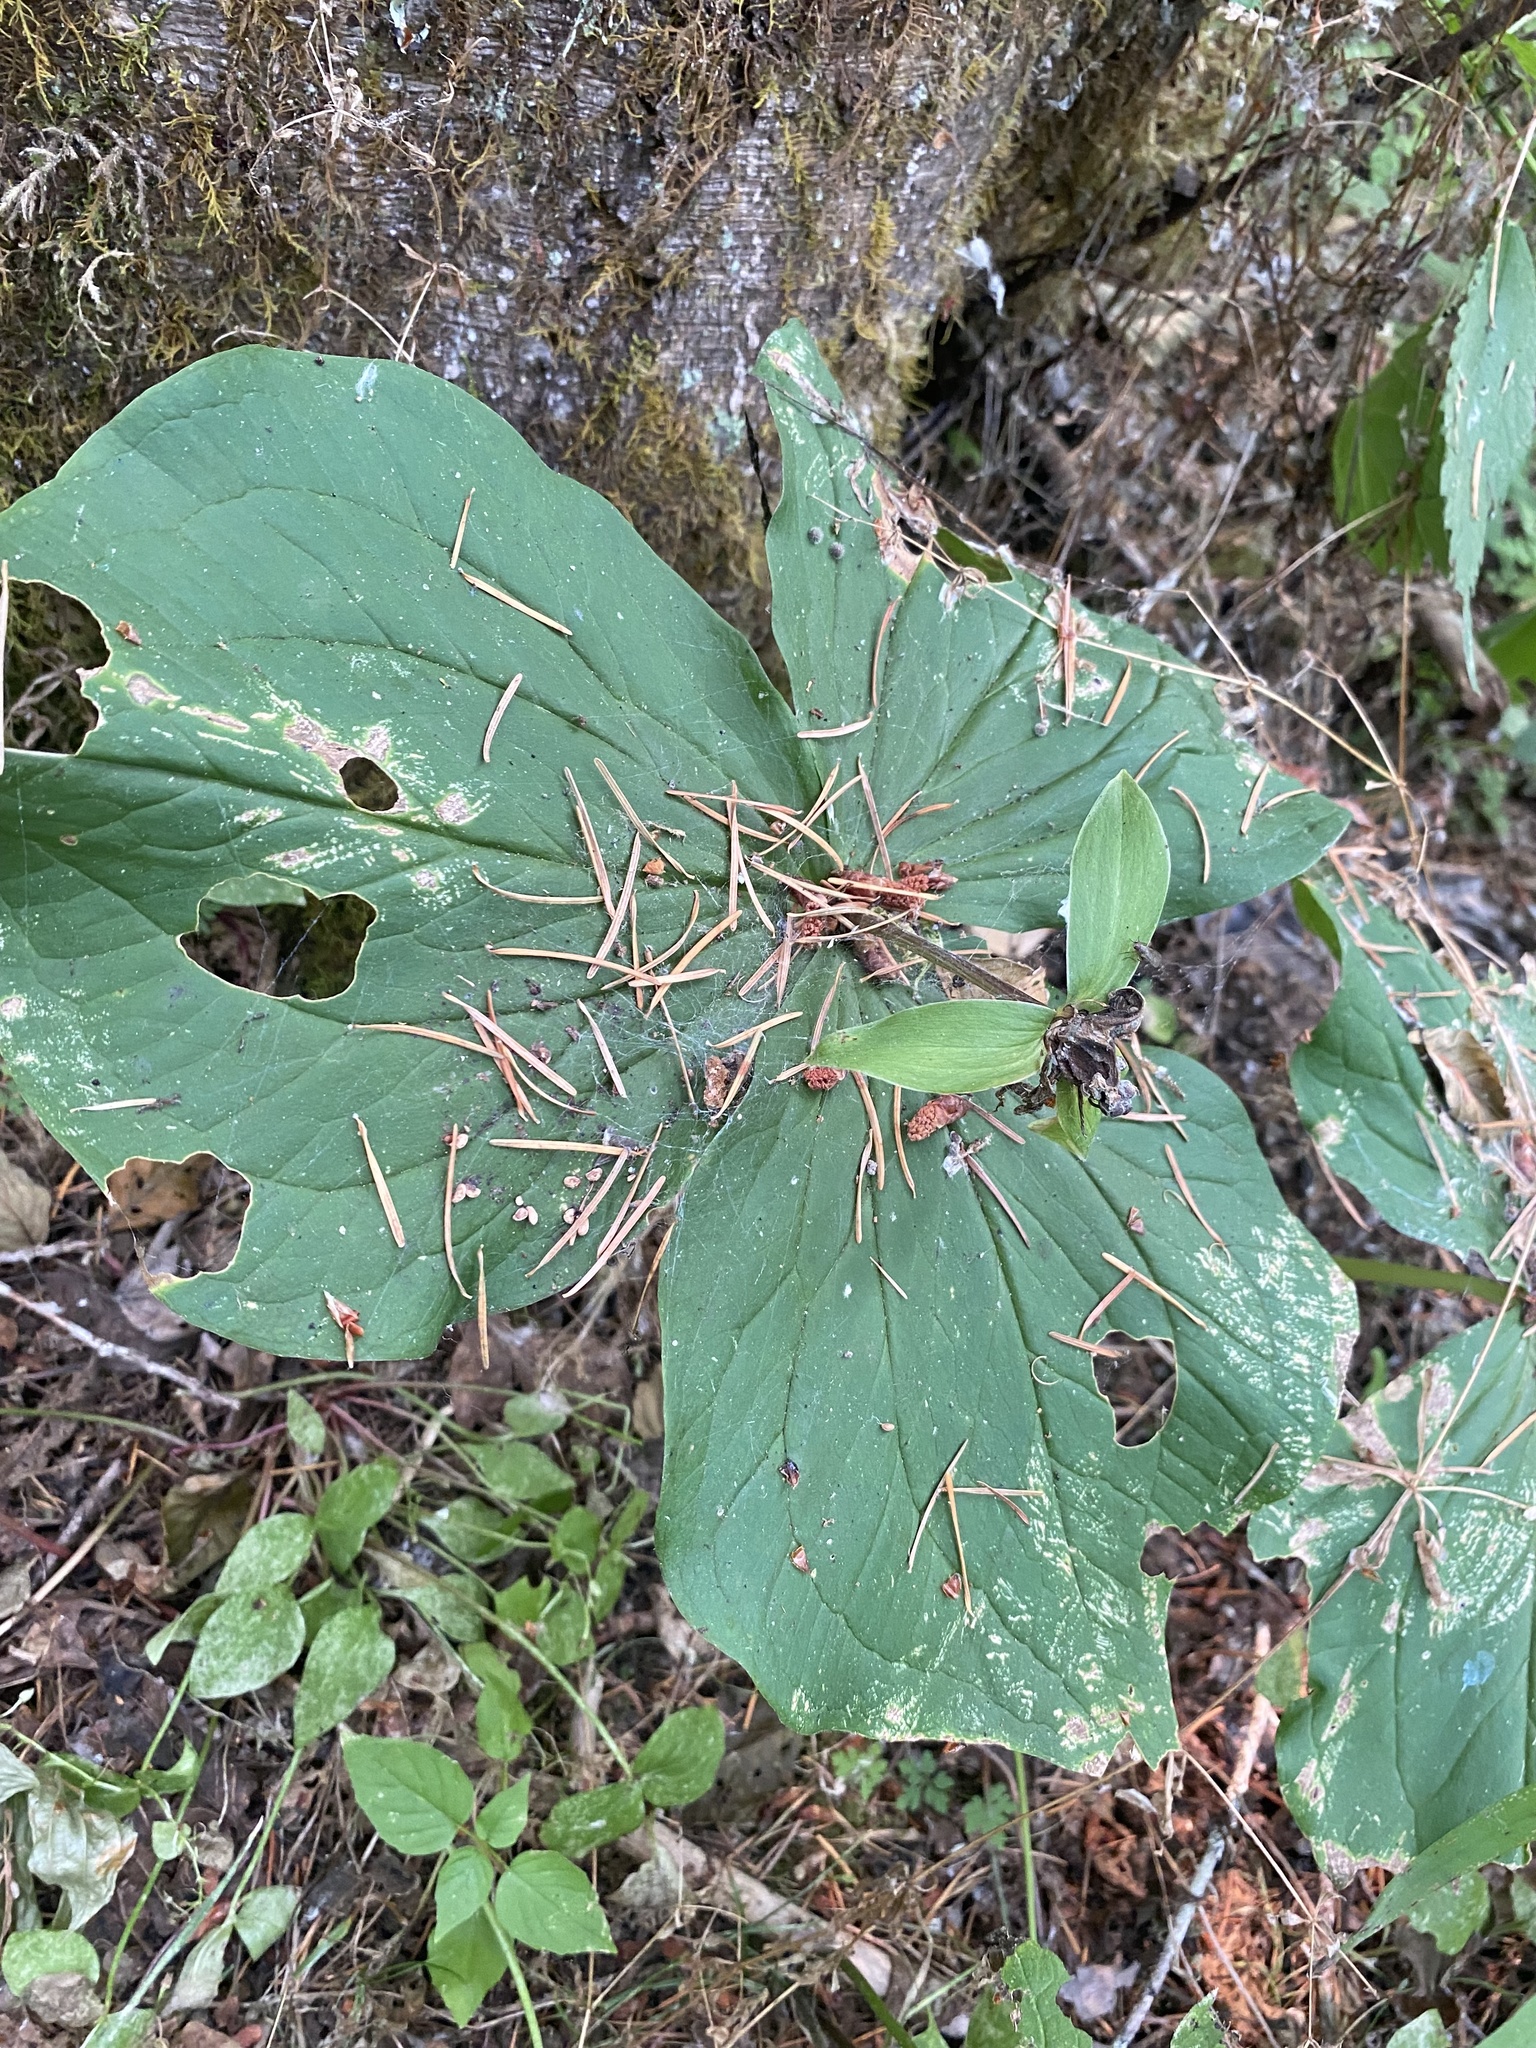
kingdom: Plantae
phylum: Tracheophyta
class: Liliopsida
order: Liliales
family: Melanthiaceae
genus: Trillium
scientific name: Trillium ovatum
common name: Pacific trillium
